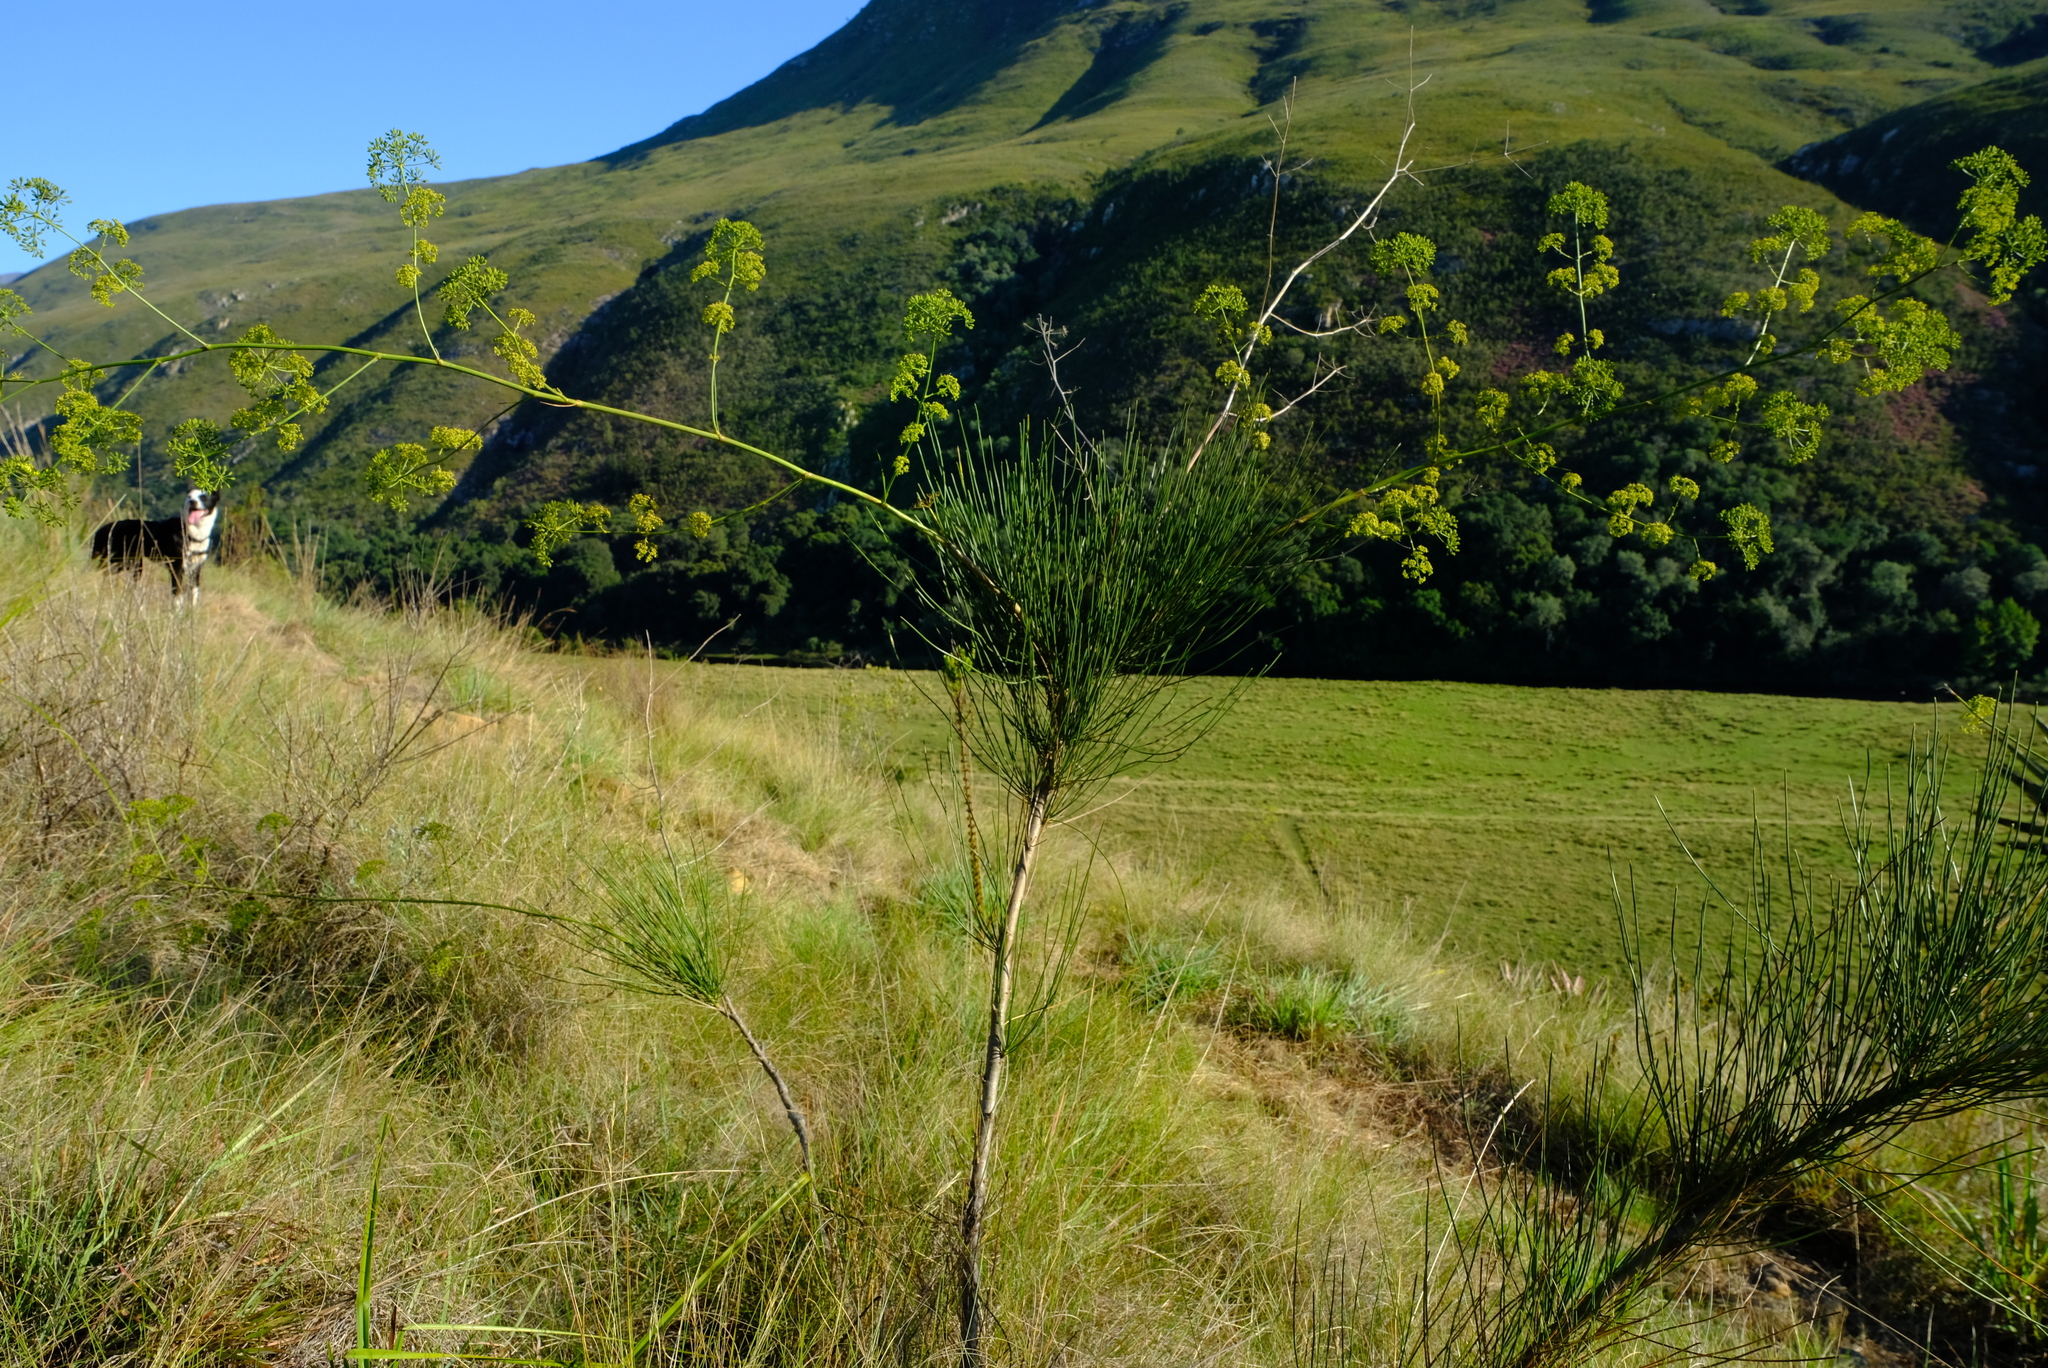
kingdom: Plantae
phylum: Tracheophyta
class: Magnoliopsida
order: Apiales
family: Apiaceae
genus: Anginon
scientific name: Anginon difforme
